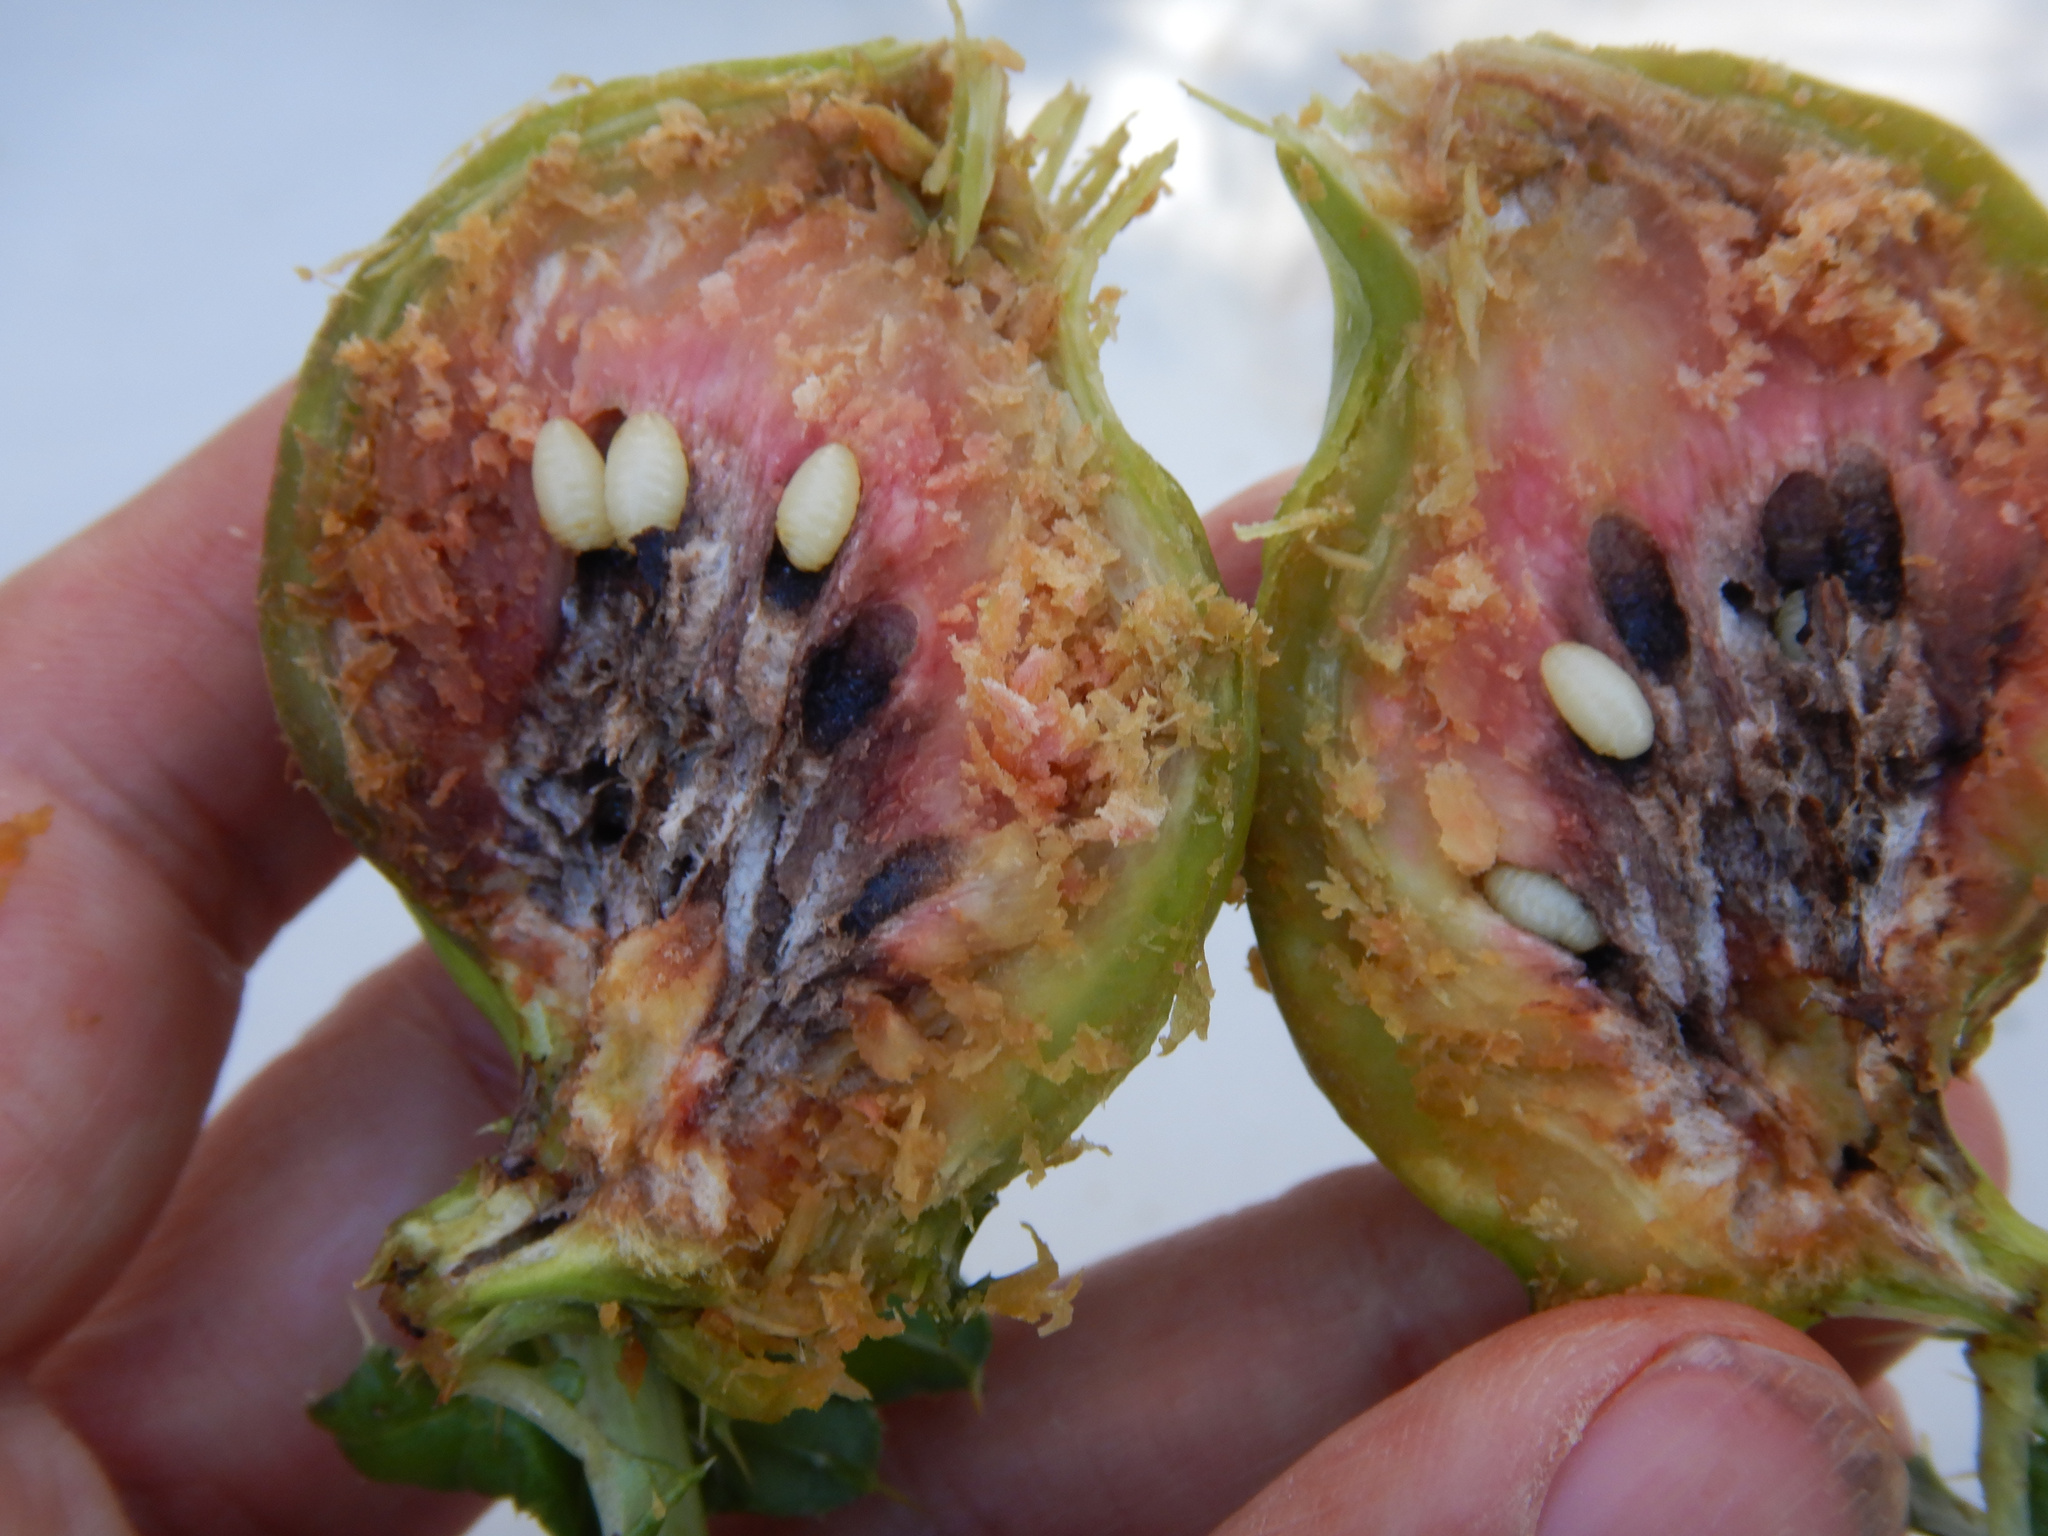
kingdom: Animalia
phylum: Arthropoda
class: Insecta
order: Diptera
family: Tephritidae
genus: Urophora
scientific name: Urophora cardui
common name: Fruit fly
